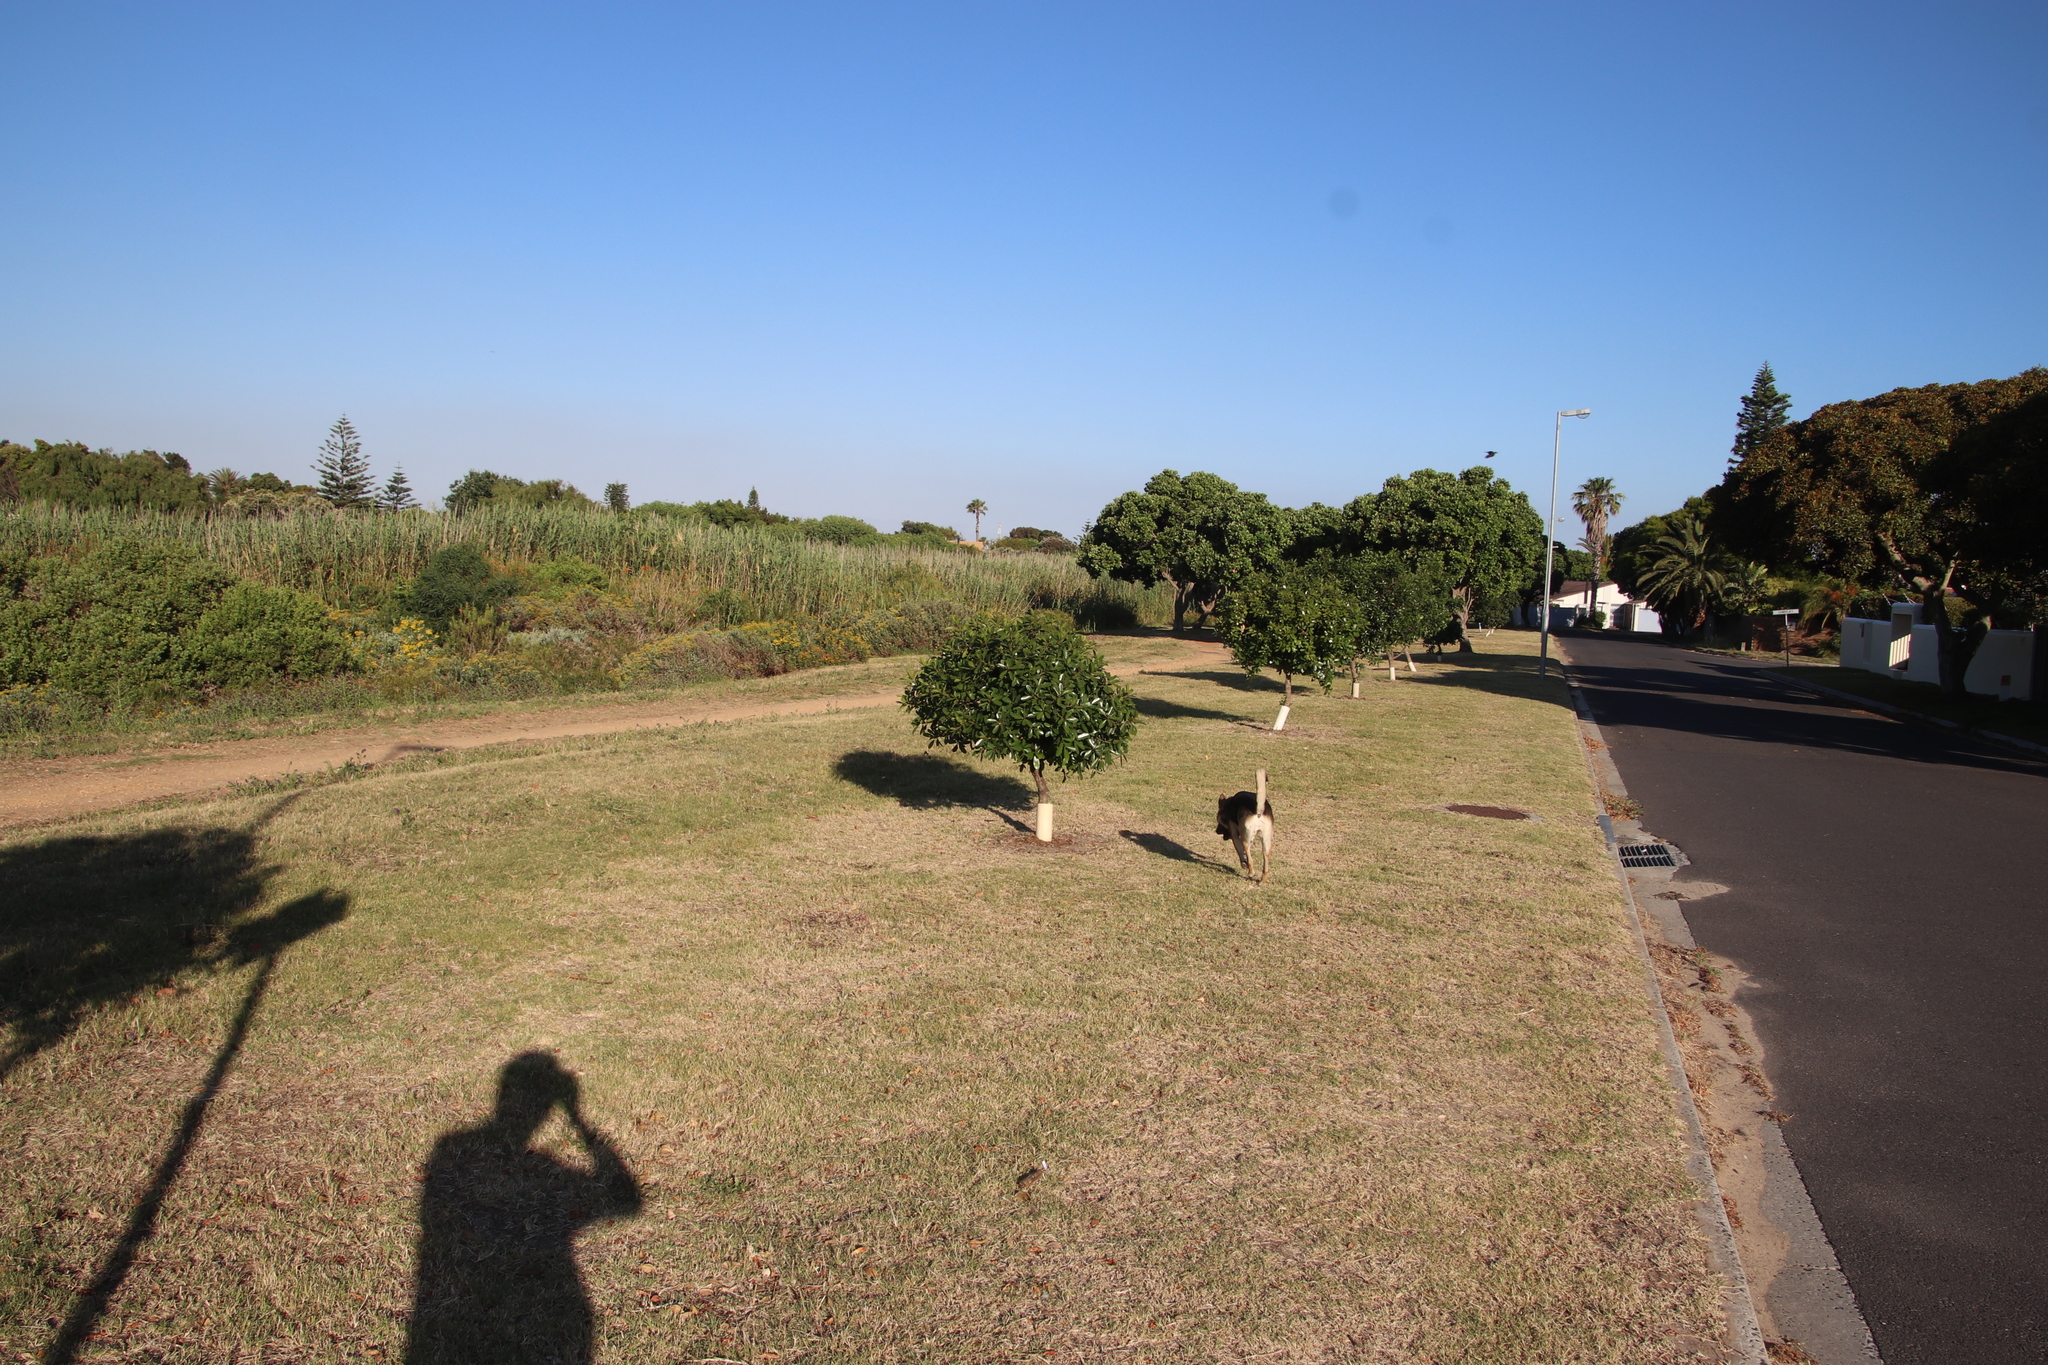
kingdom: Plantae
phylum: Tracheophyta
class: Magnoliopsida
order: Ericales
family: Sapotaceae
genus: Sideroxylon
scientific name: Sideroxylon inerme
